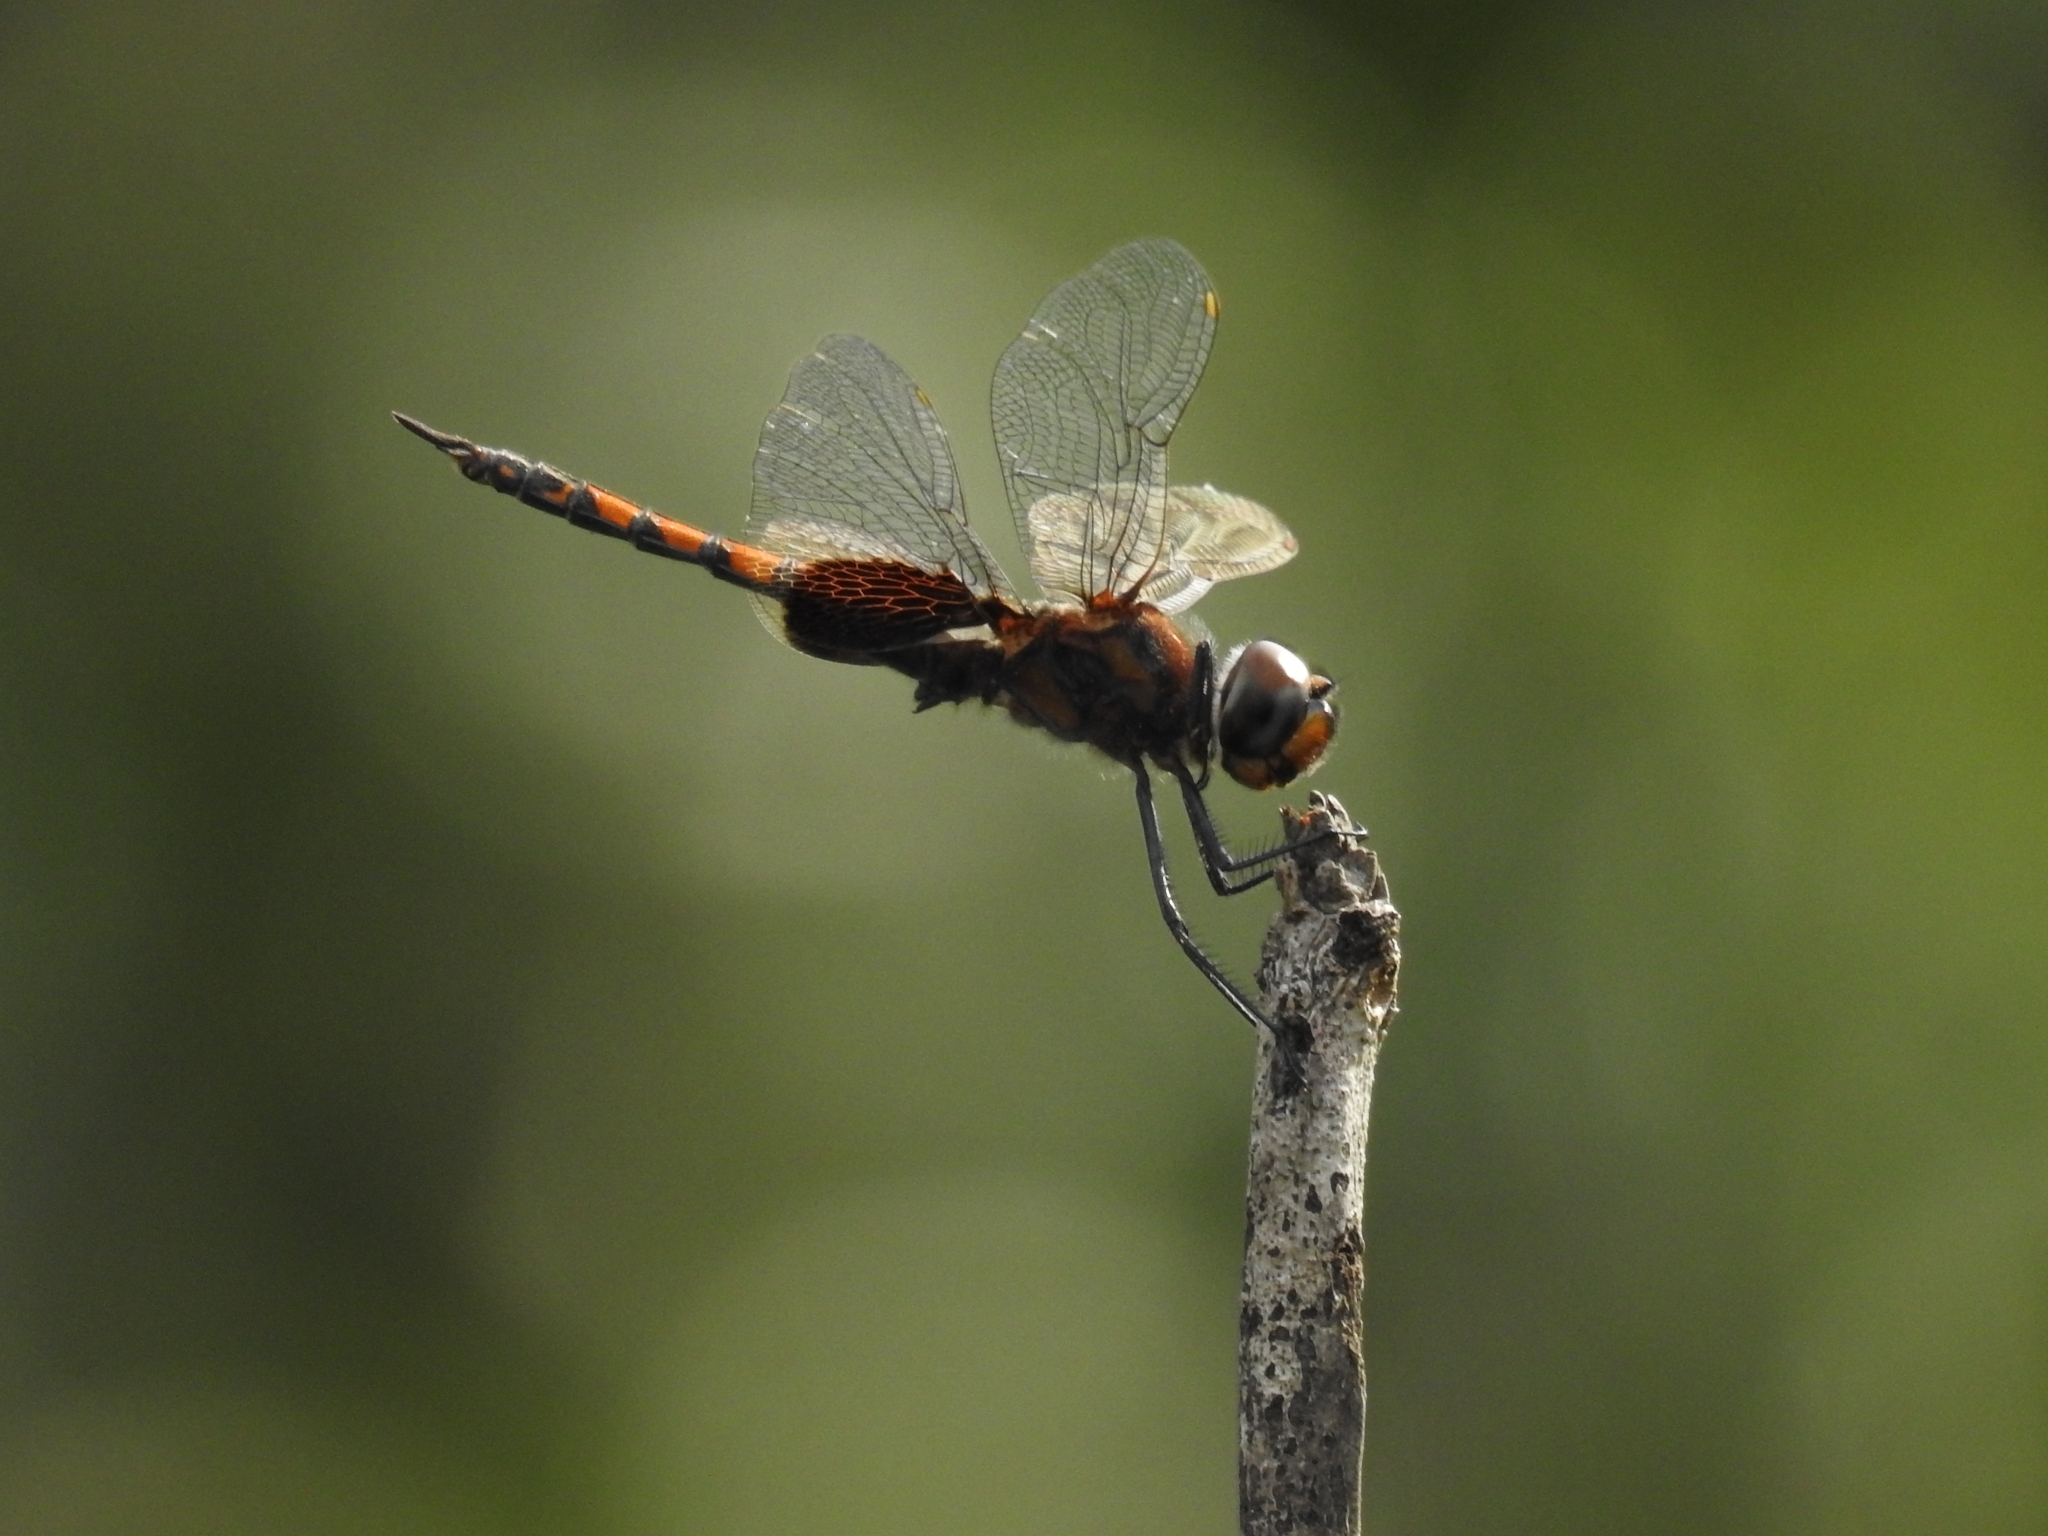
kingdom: Animalia
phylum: Arthropoda
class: Insecta
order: Odonata
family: Libellulidae
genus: Tramea
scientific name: Tramea limbata
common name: Ferruginous glider
